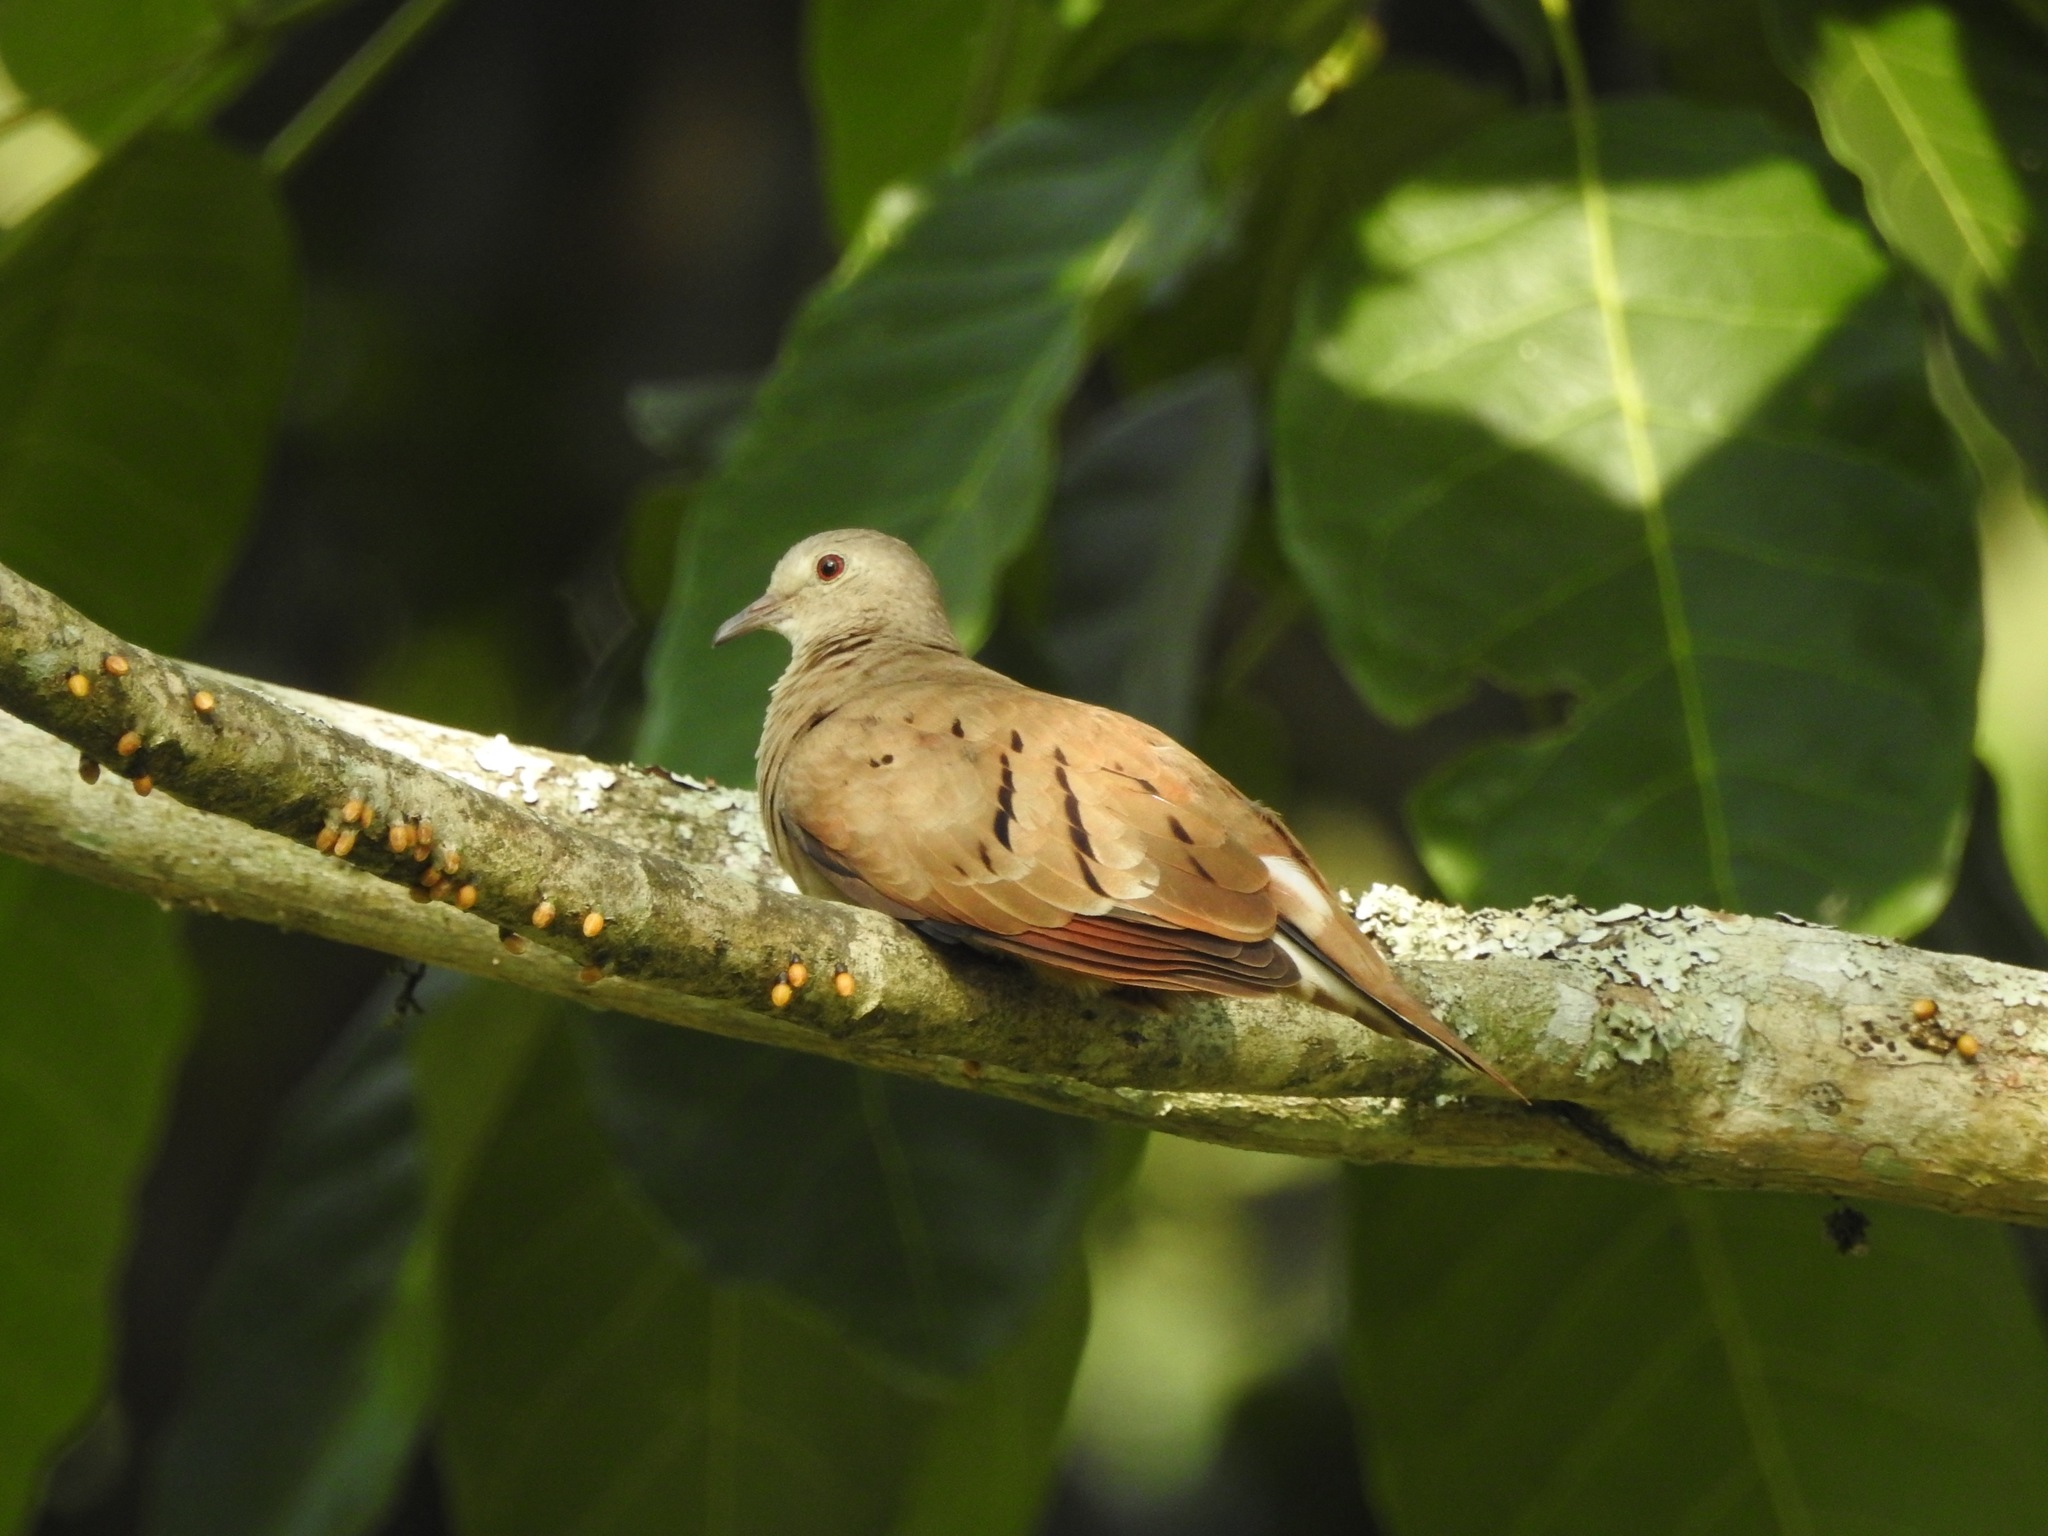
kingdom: Animalia
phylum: Chordata
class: Aves
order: Columbiformes
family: Columbidae
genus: Columbina
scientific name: Columbina talpacoti
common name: Ruddy ground dove
